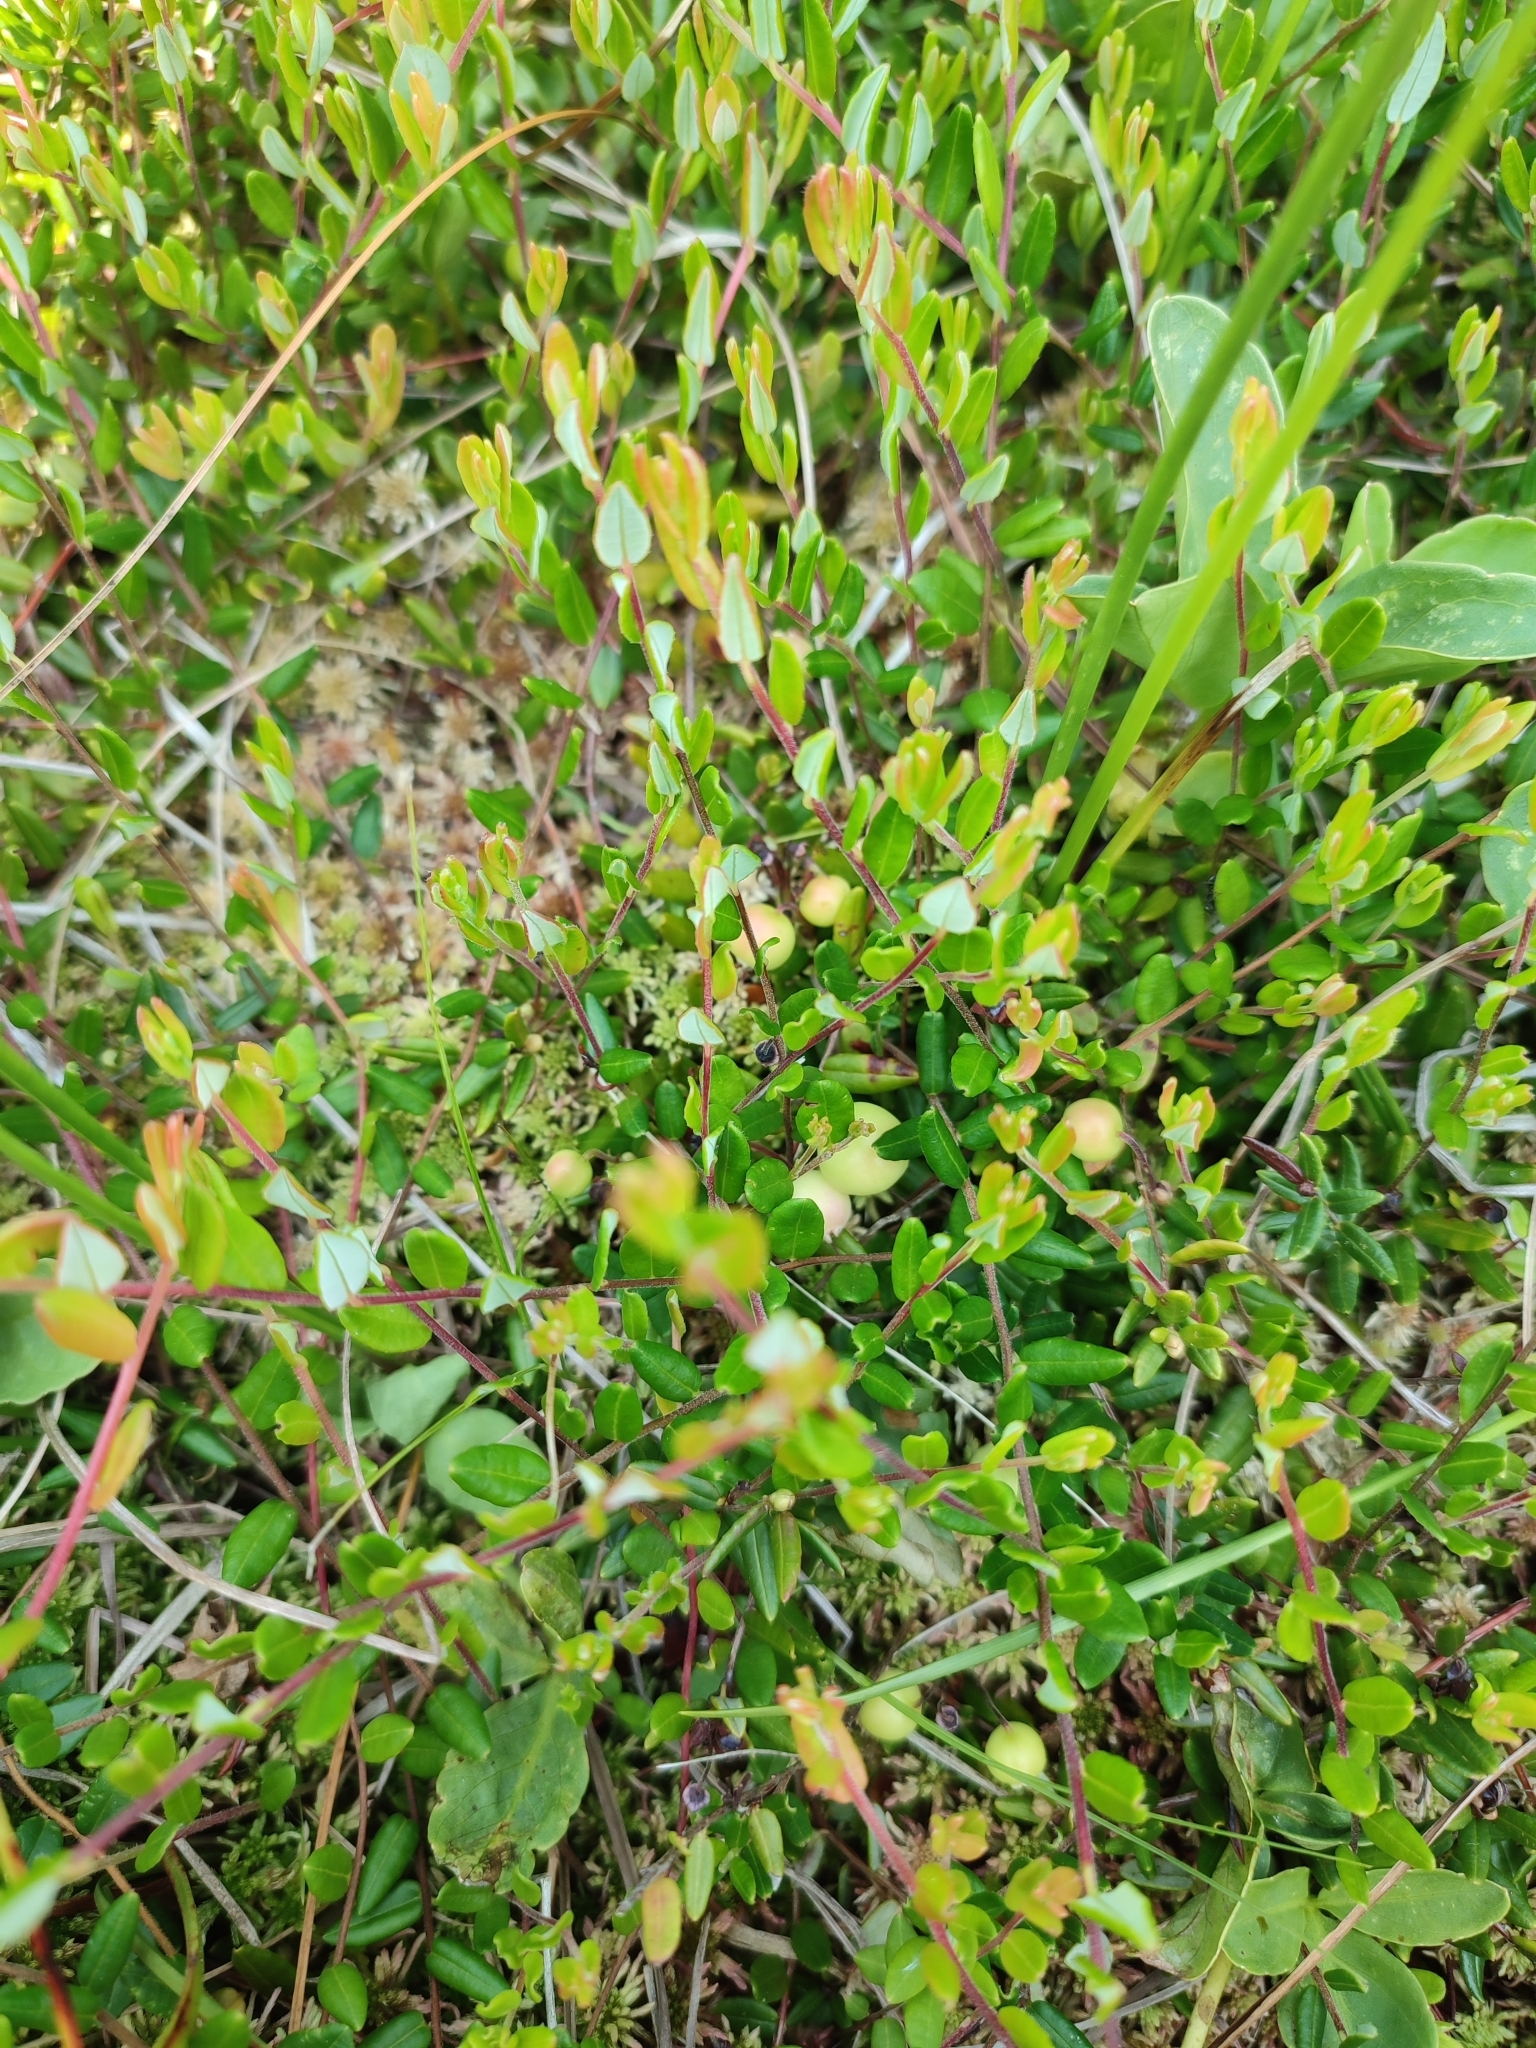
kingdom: Plantae
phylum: Tracheophyta
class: Magnoliopsida
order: Ericales
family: Ericaceae
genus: Vaccinium
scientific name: Vaccinium oxycoccos
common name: Cranberry
